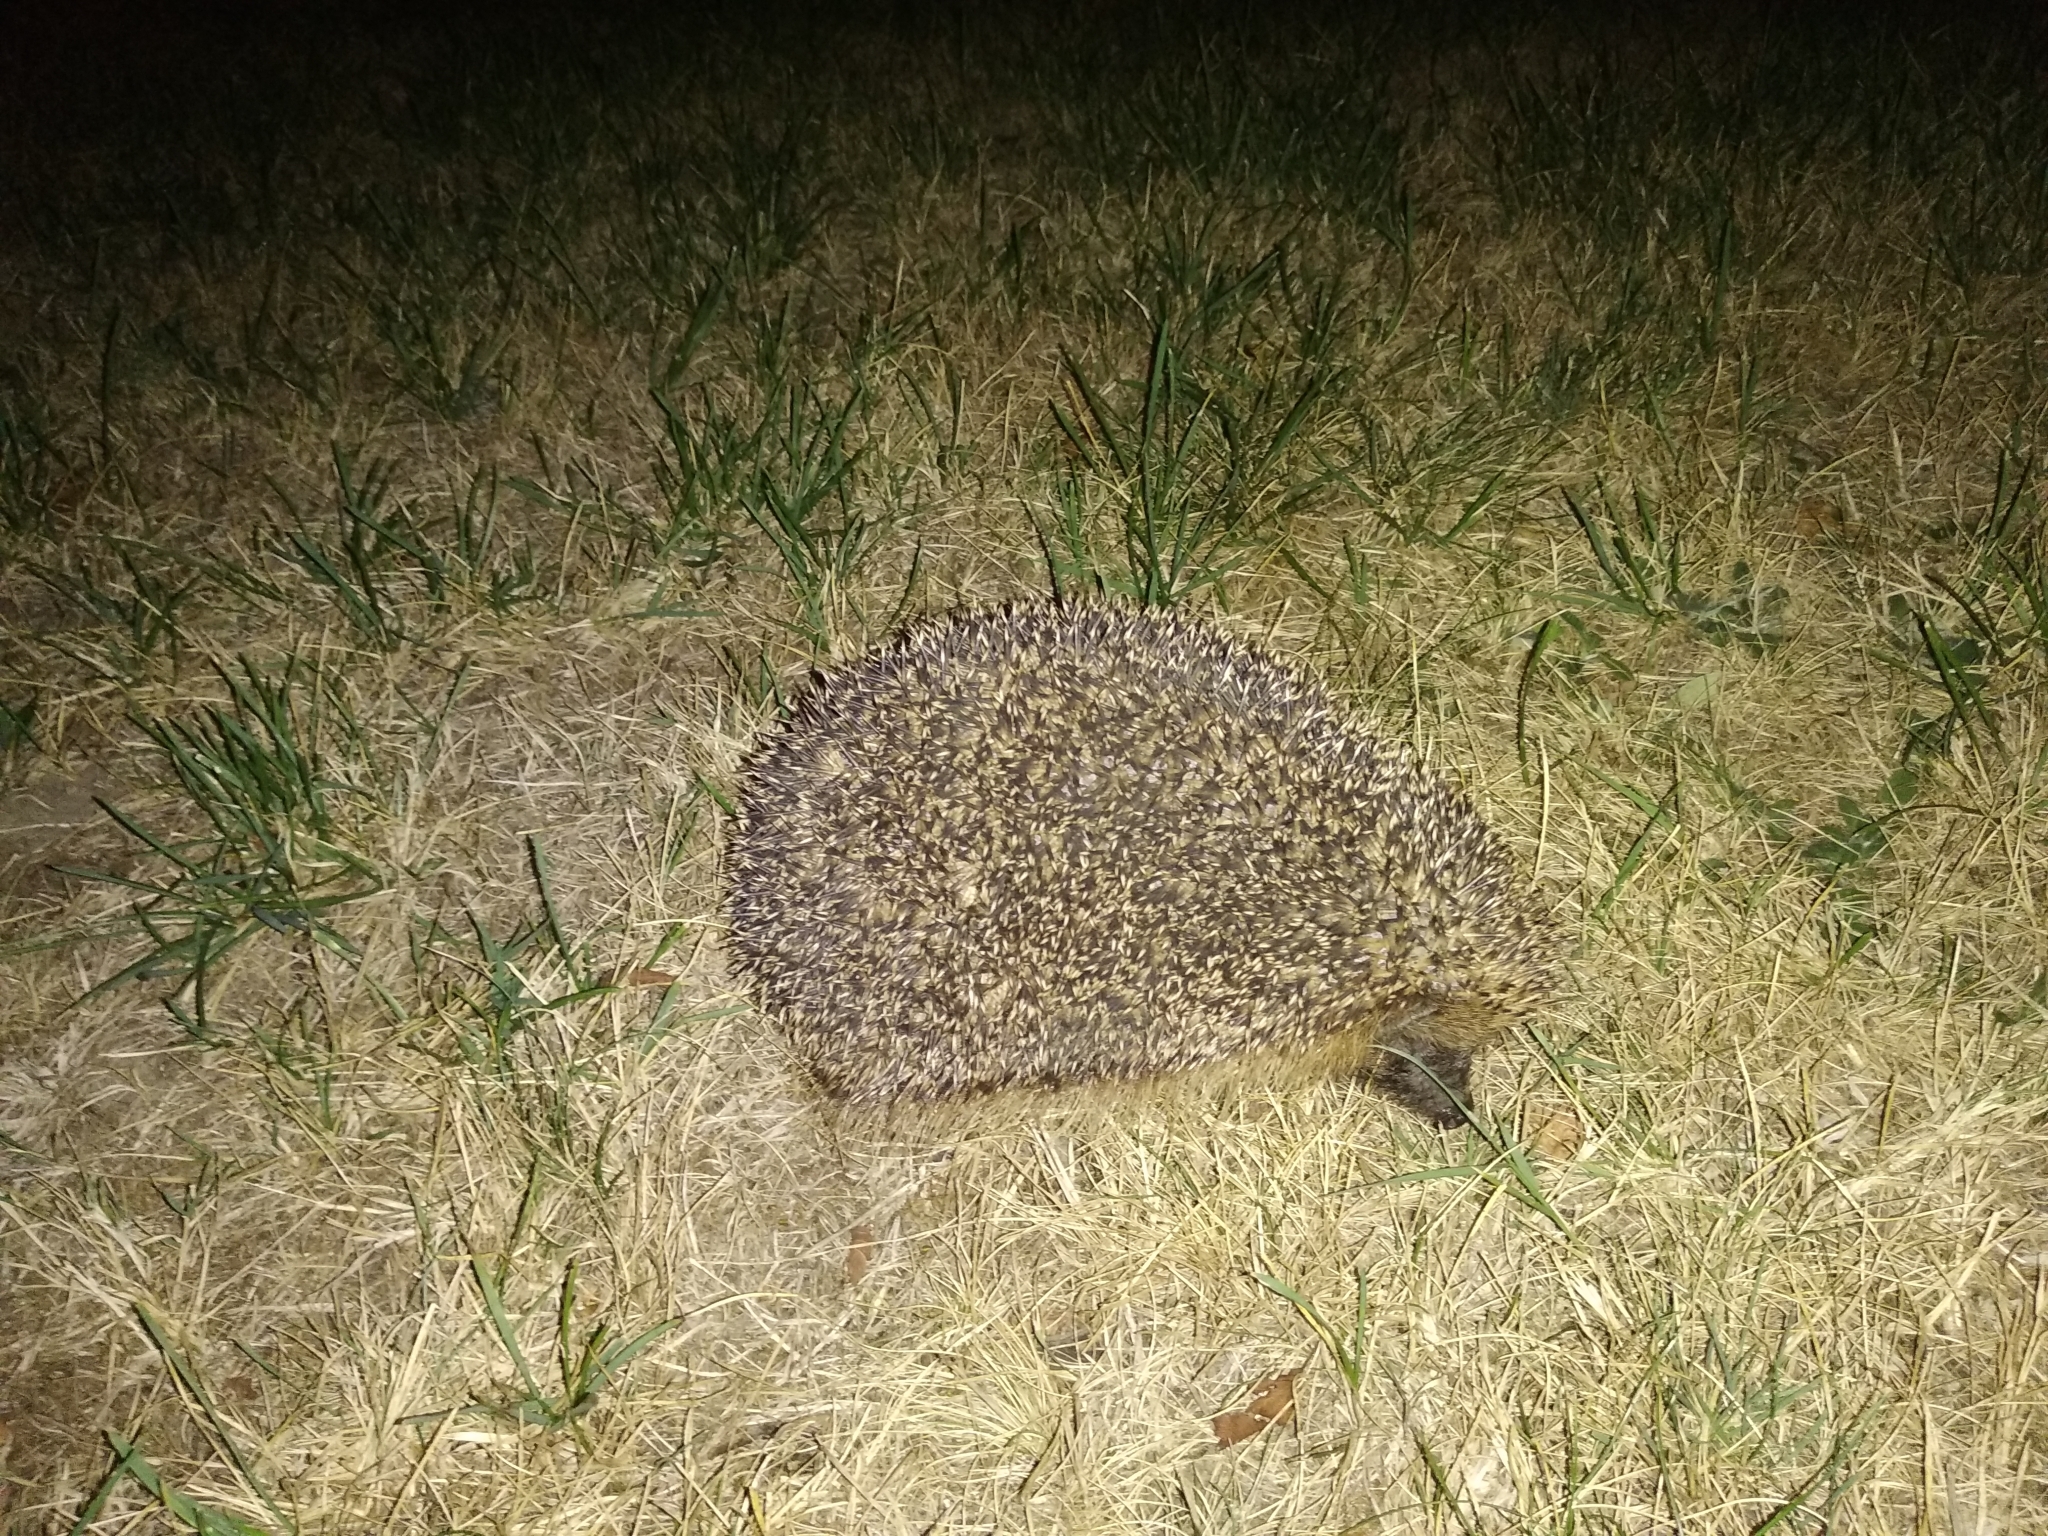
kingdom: Animalia
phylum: Chordata
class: Mammalia
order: Erinaceomorpha
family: Erinaceidae
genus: Erinaceus
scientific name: Erinaceus europaeus
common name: West european hedgehog
